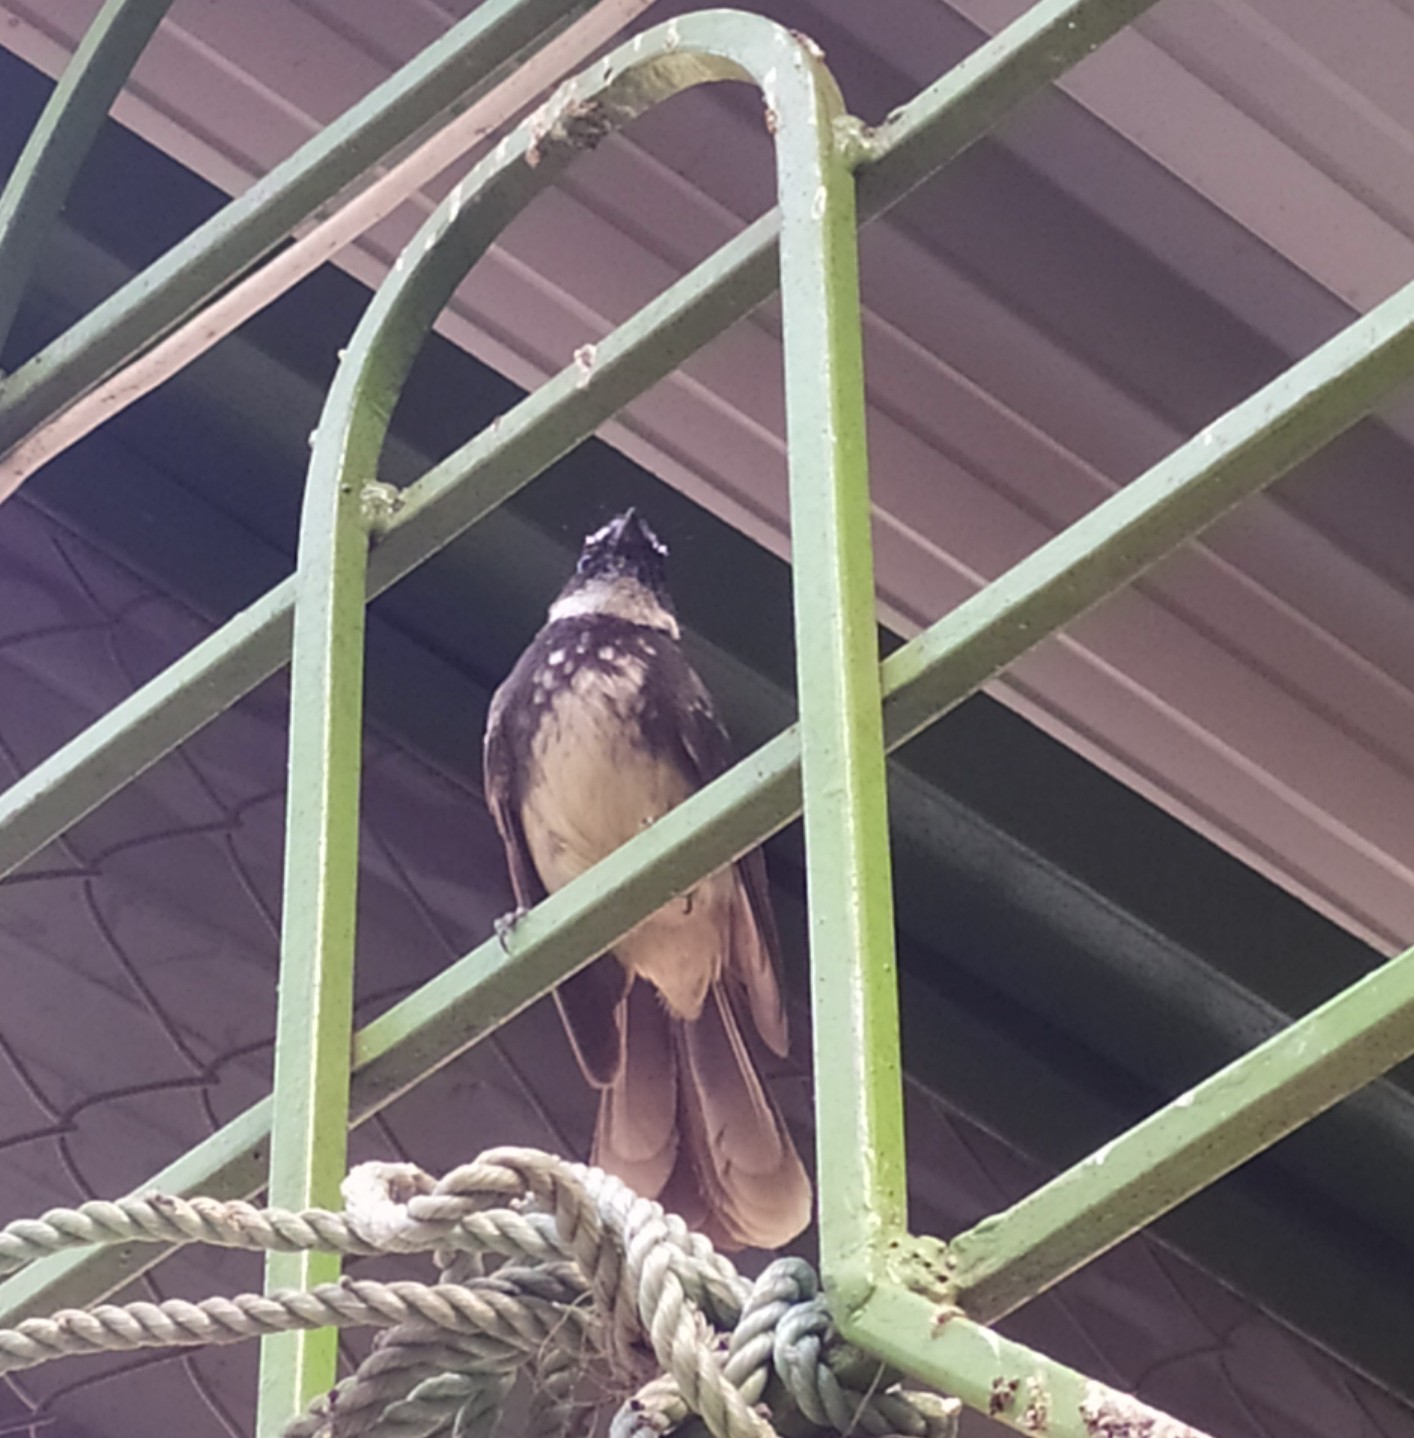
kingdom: Animalia
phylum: Chordata
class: Aves
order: Passeriformes
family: Rhipiduridae
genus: Rhipidura
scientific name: Rhipidura albogularis
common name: White-spotted fantail
